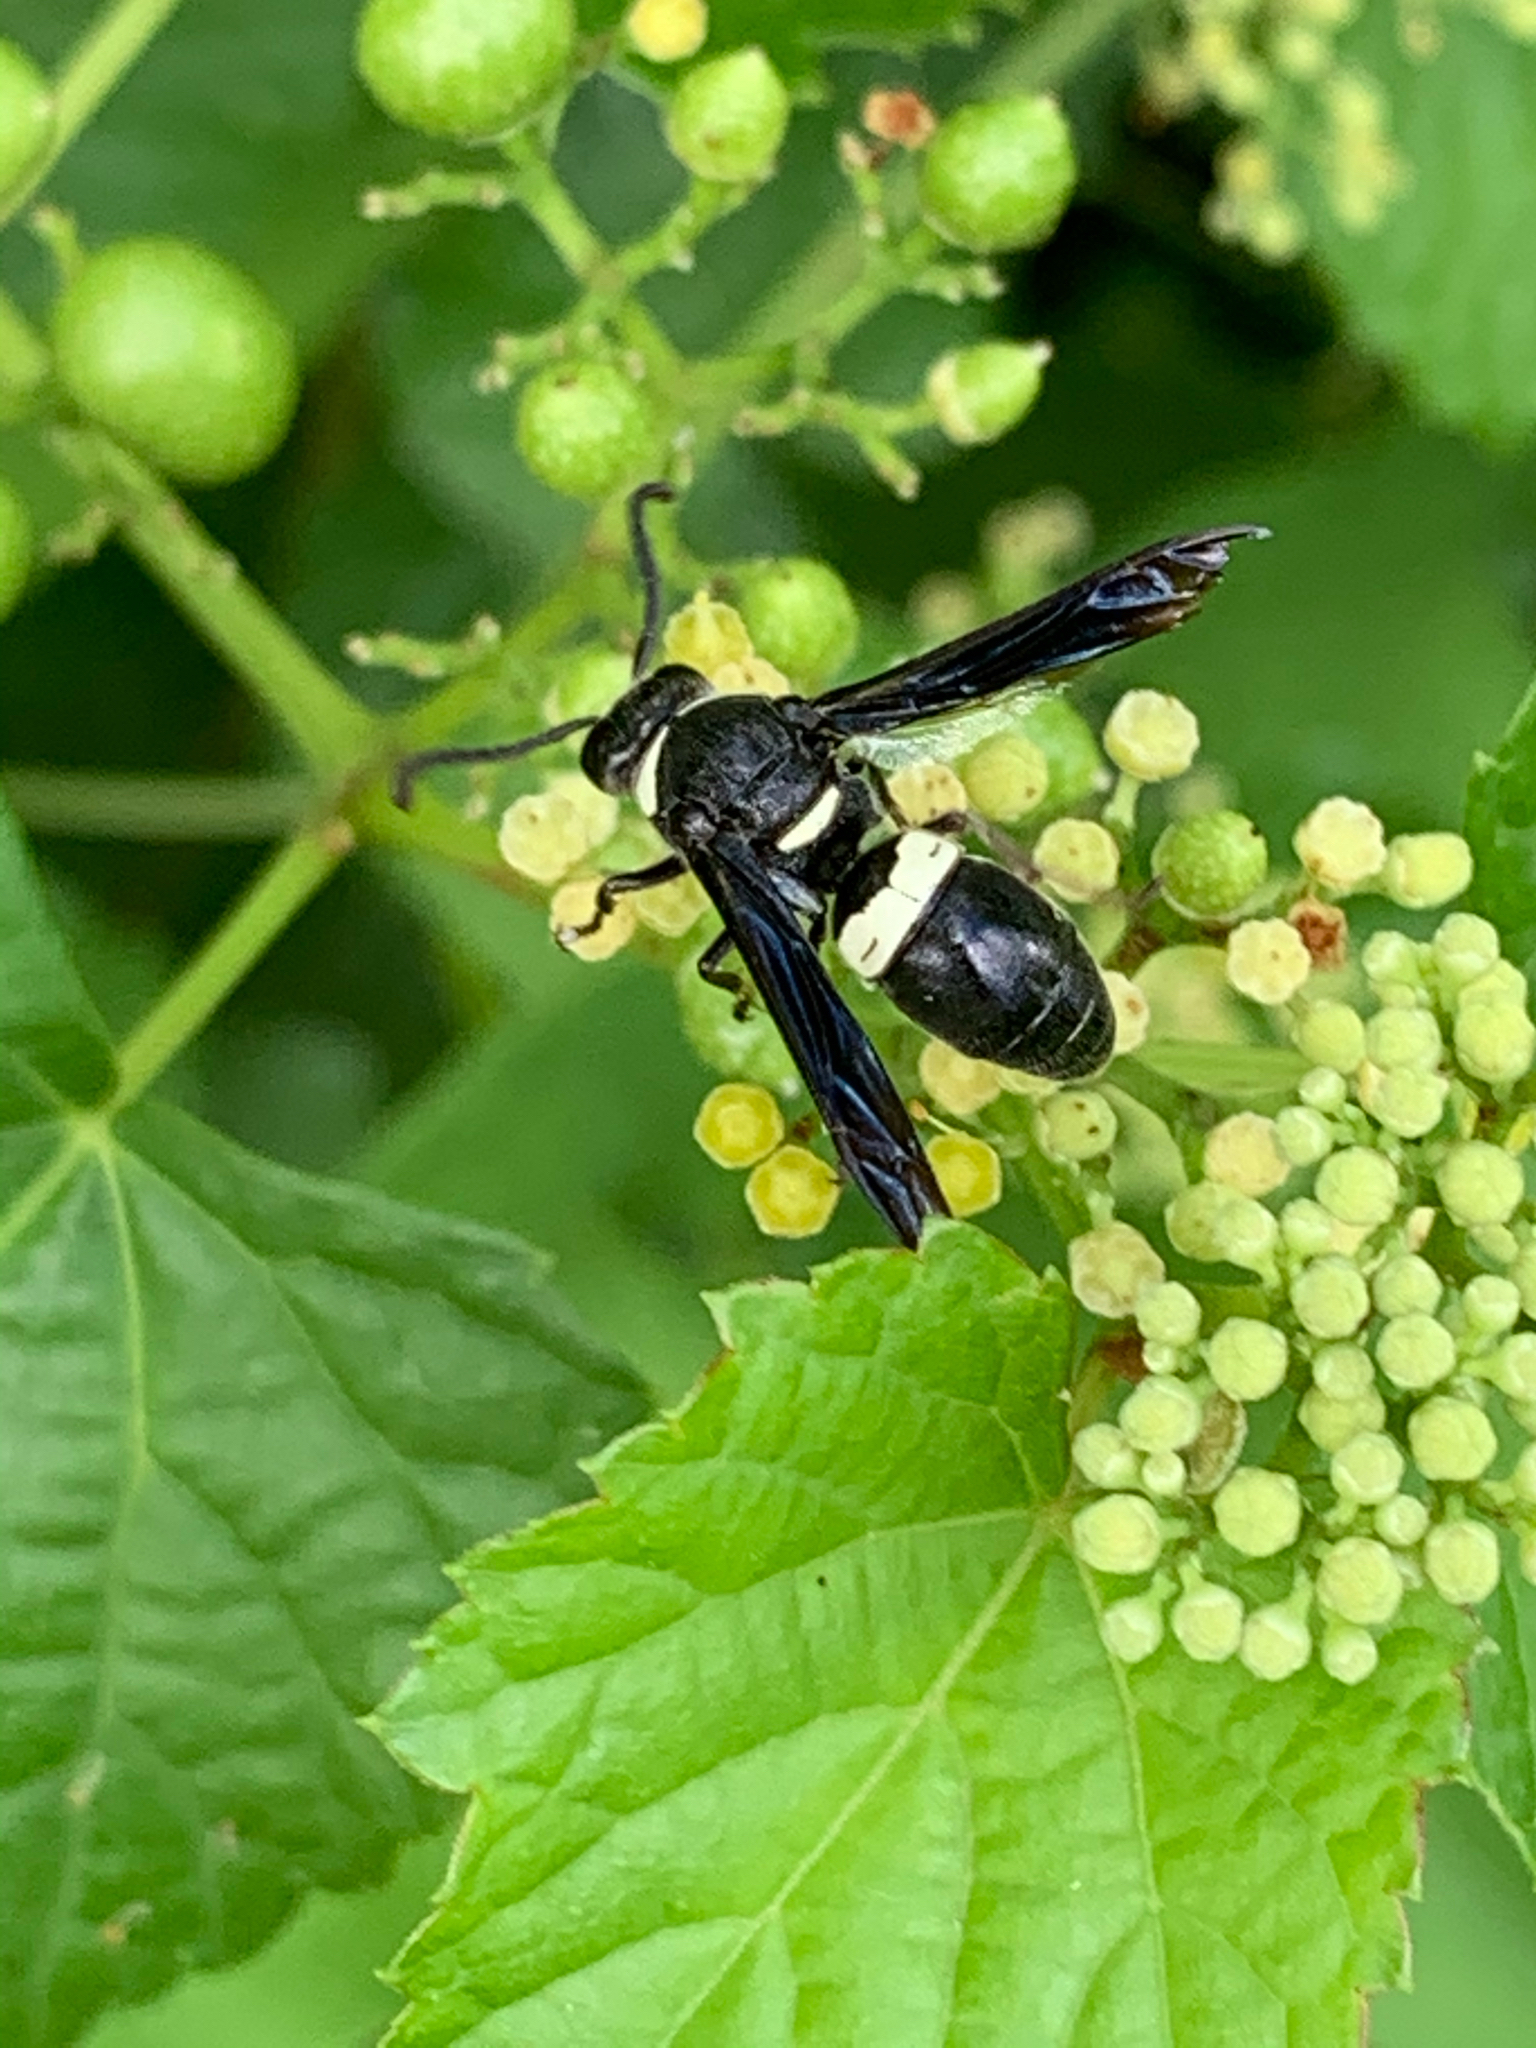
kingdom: Animalia
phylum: Arthropoda
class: Insecta
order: Hymenoptera
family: Eumenidae
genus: Monobia
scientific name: Monobia quadridens
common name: Four-toothed mason wasp
